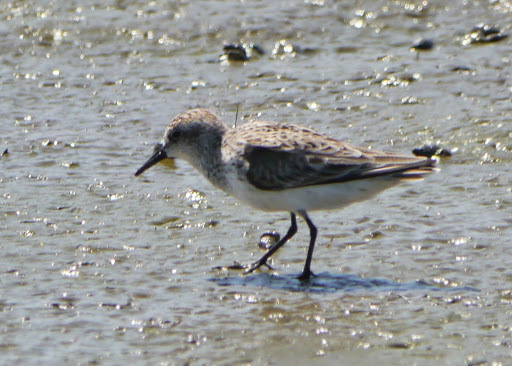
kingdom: Animalia
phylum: Chordata
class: Aves
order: Charadriiformes
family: Scolopacidae
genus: Calidris
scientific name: Calidris pusilla
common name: Semipalmated sandpiper
